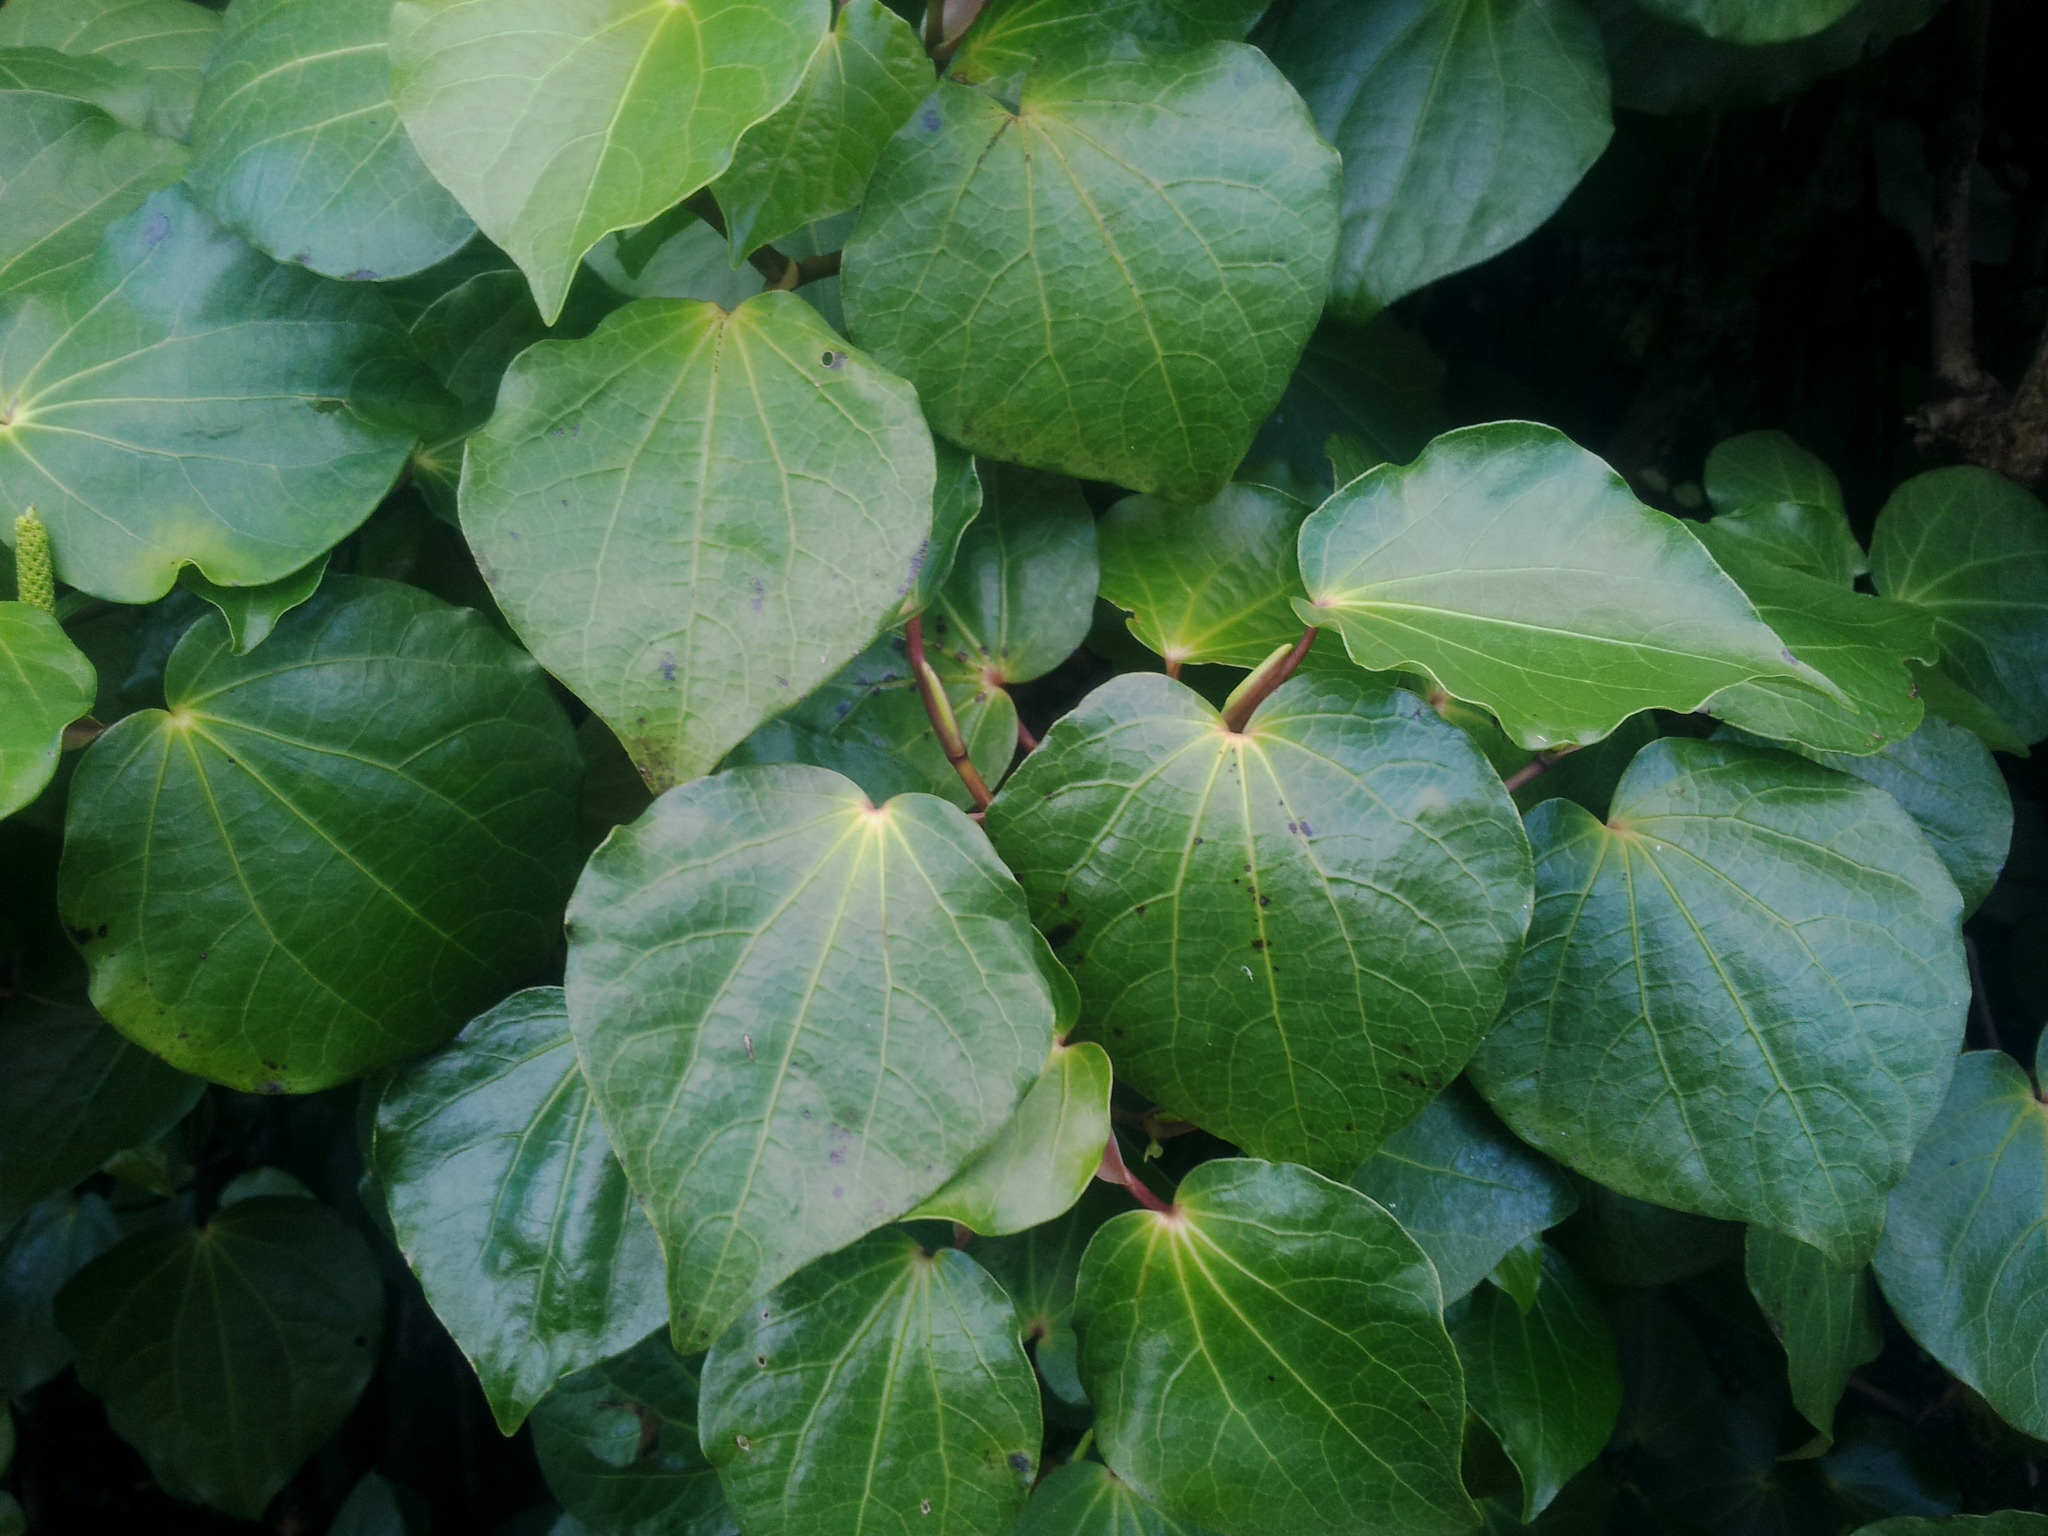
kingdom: Plantae
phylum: Tracheophyta
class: Magnoliopsida
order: Piperales
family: Piperaceae
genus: Macropiper
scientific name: Macropiper excelsum
